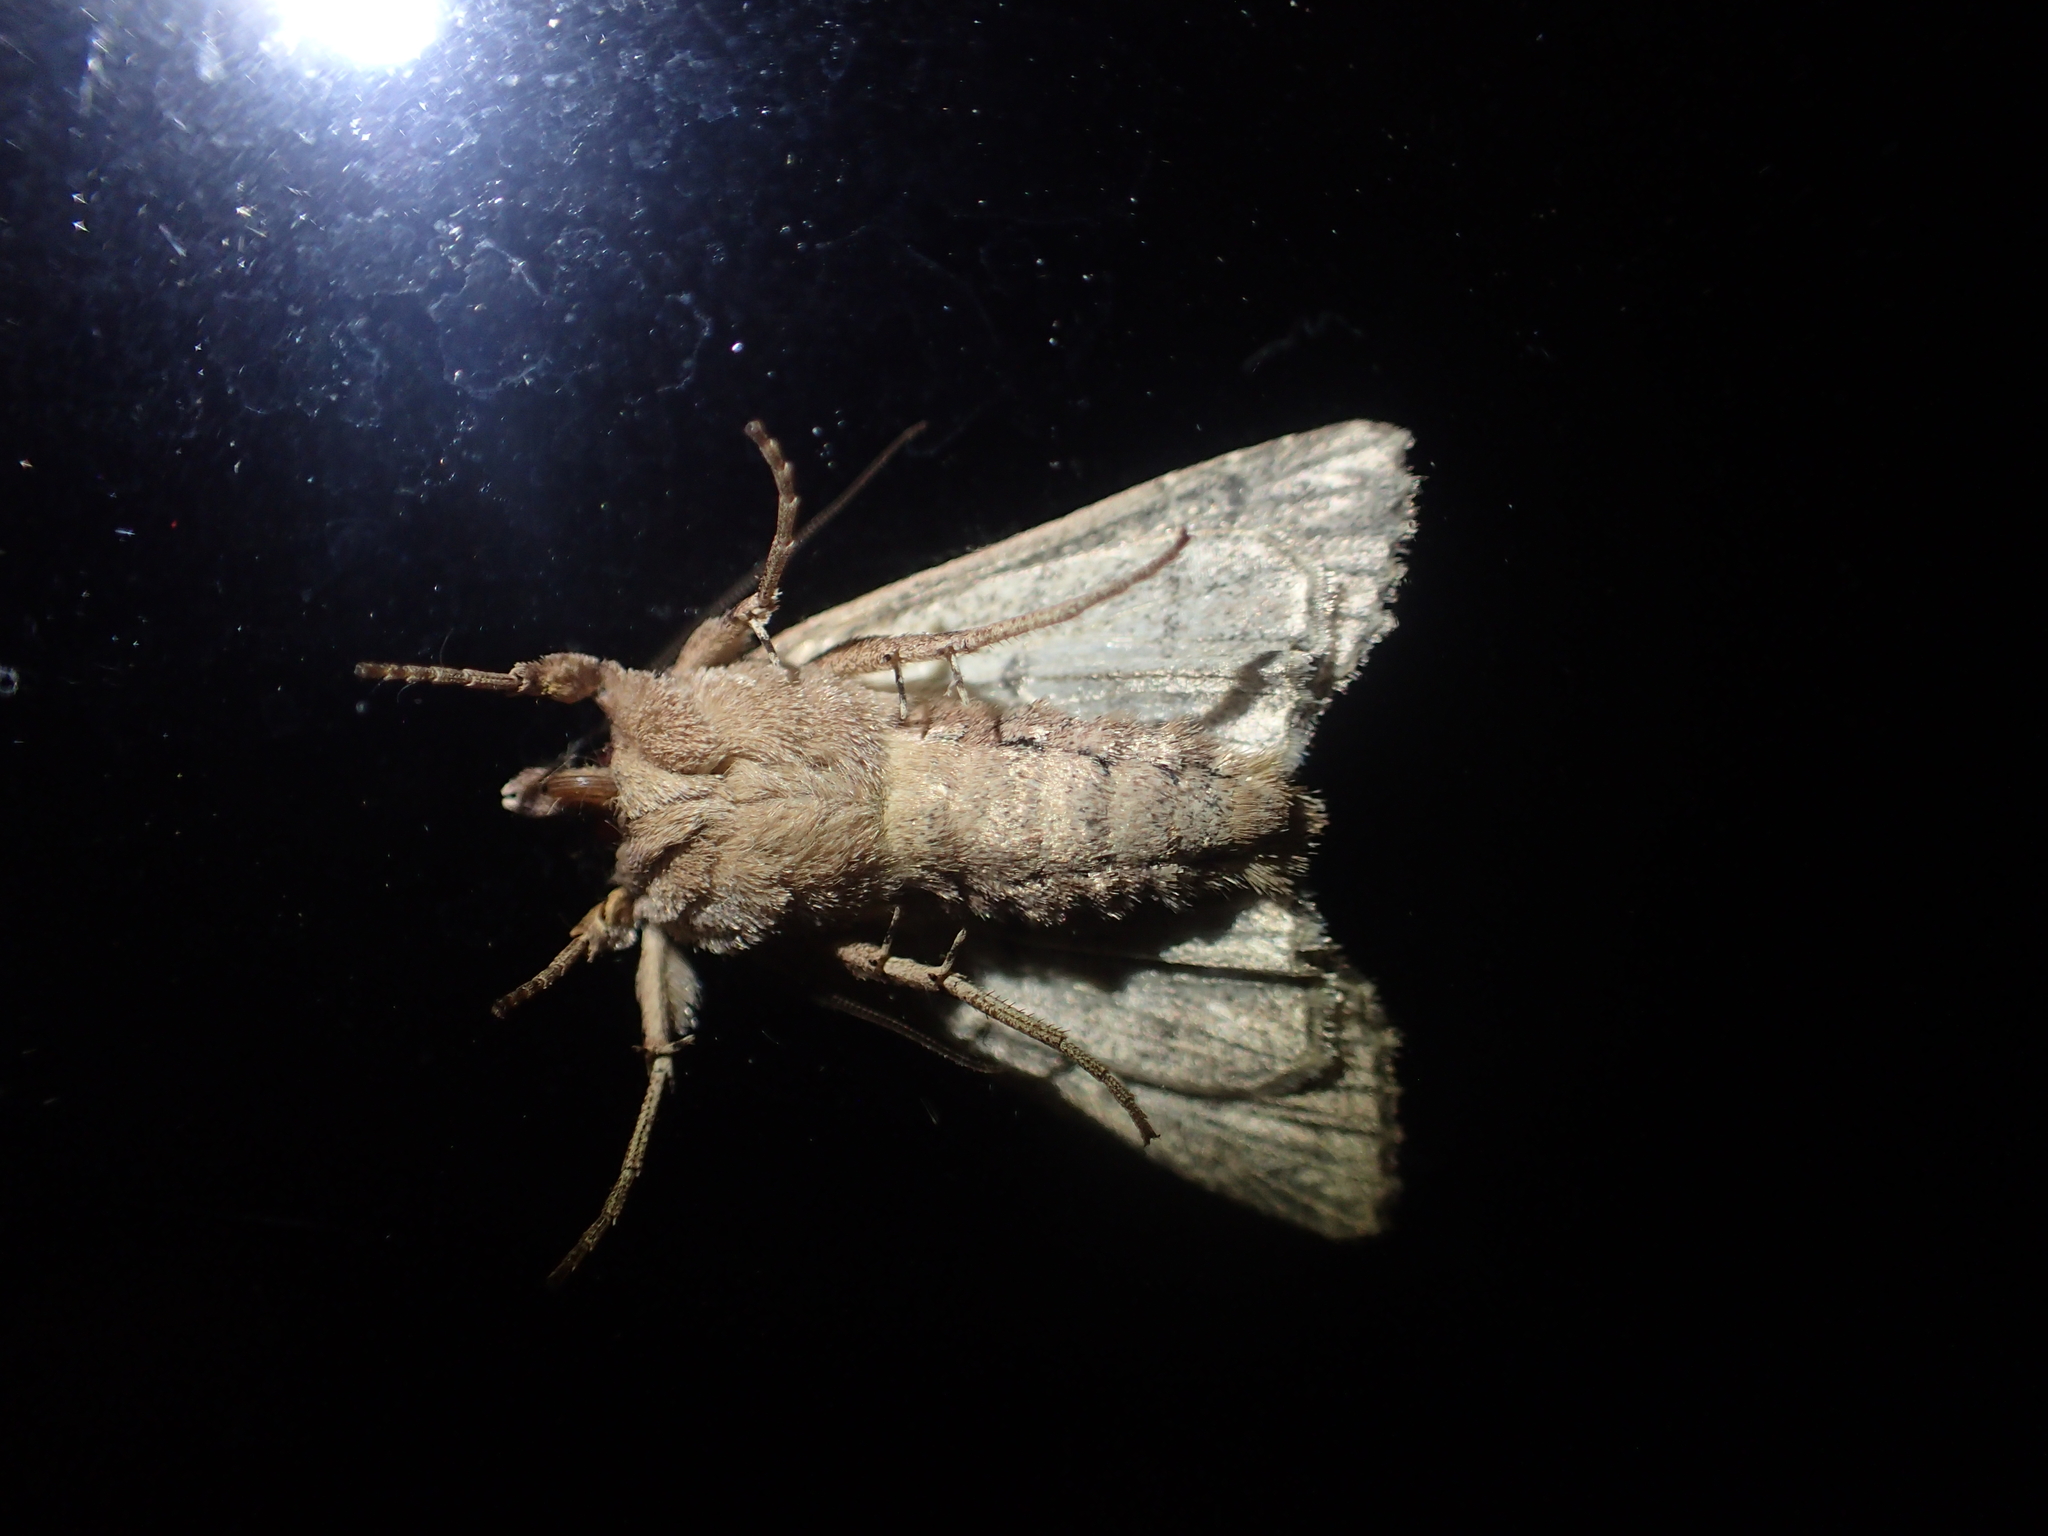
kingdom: Animalia
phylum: Arthropoda
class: Insecta
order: Lepidoptera
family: Noctuidae
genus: Ichneutica
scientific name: Ichneutica mutans
